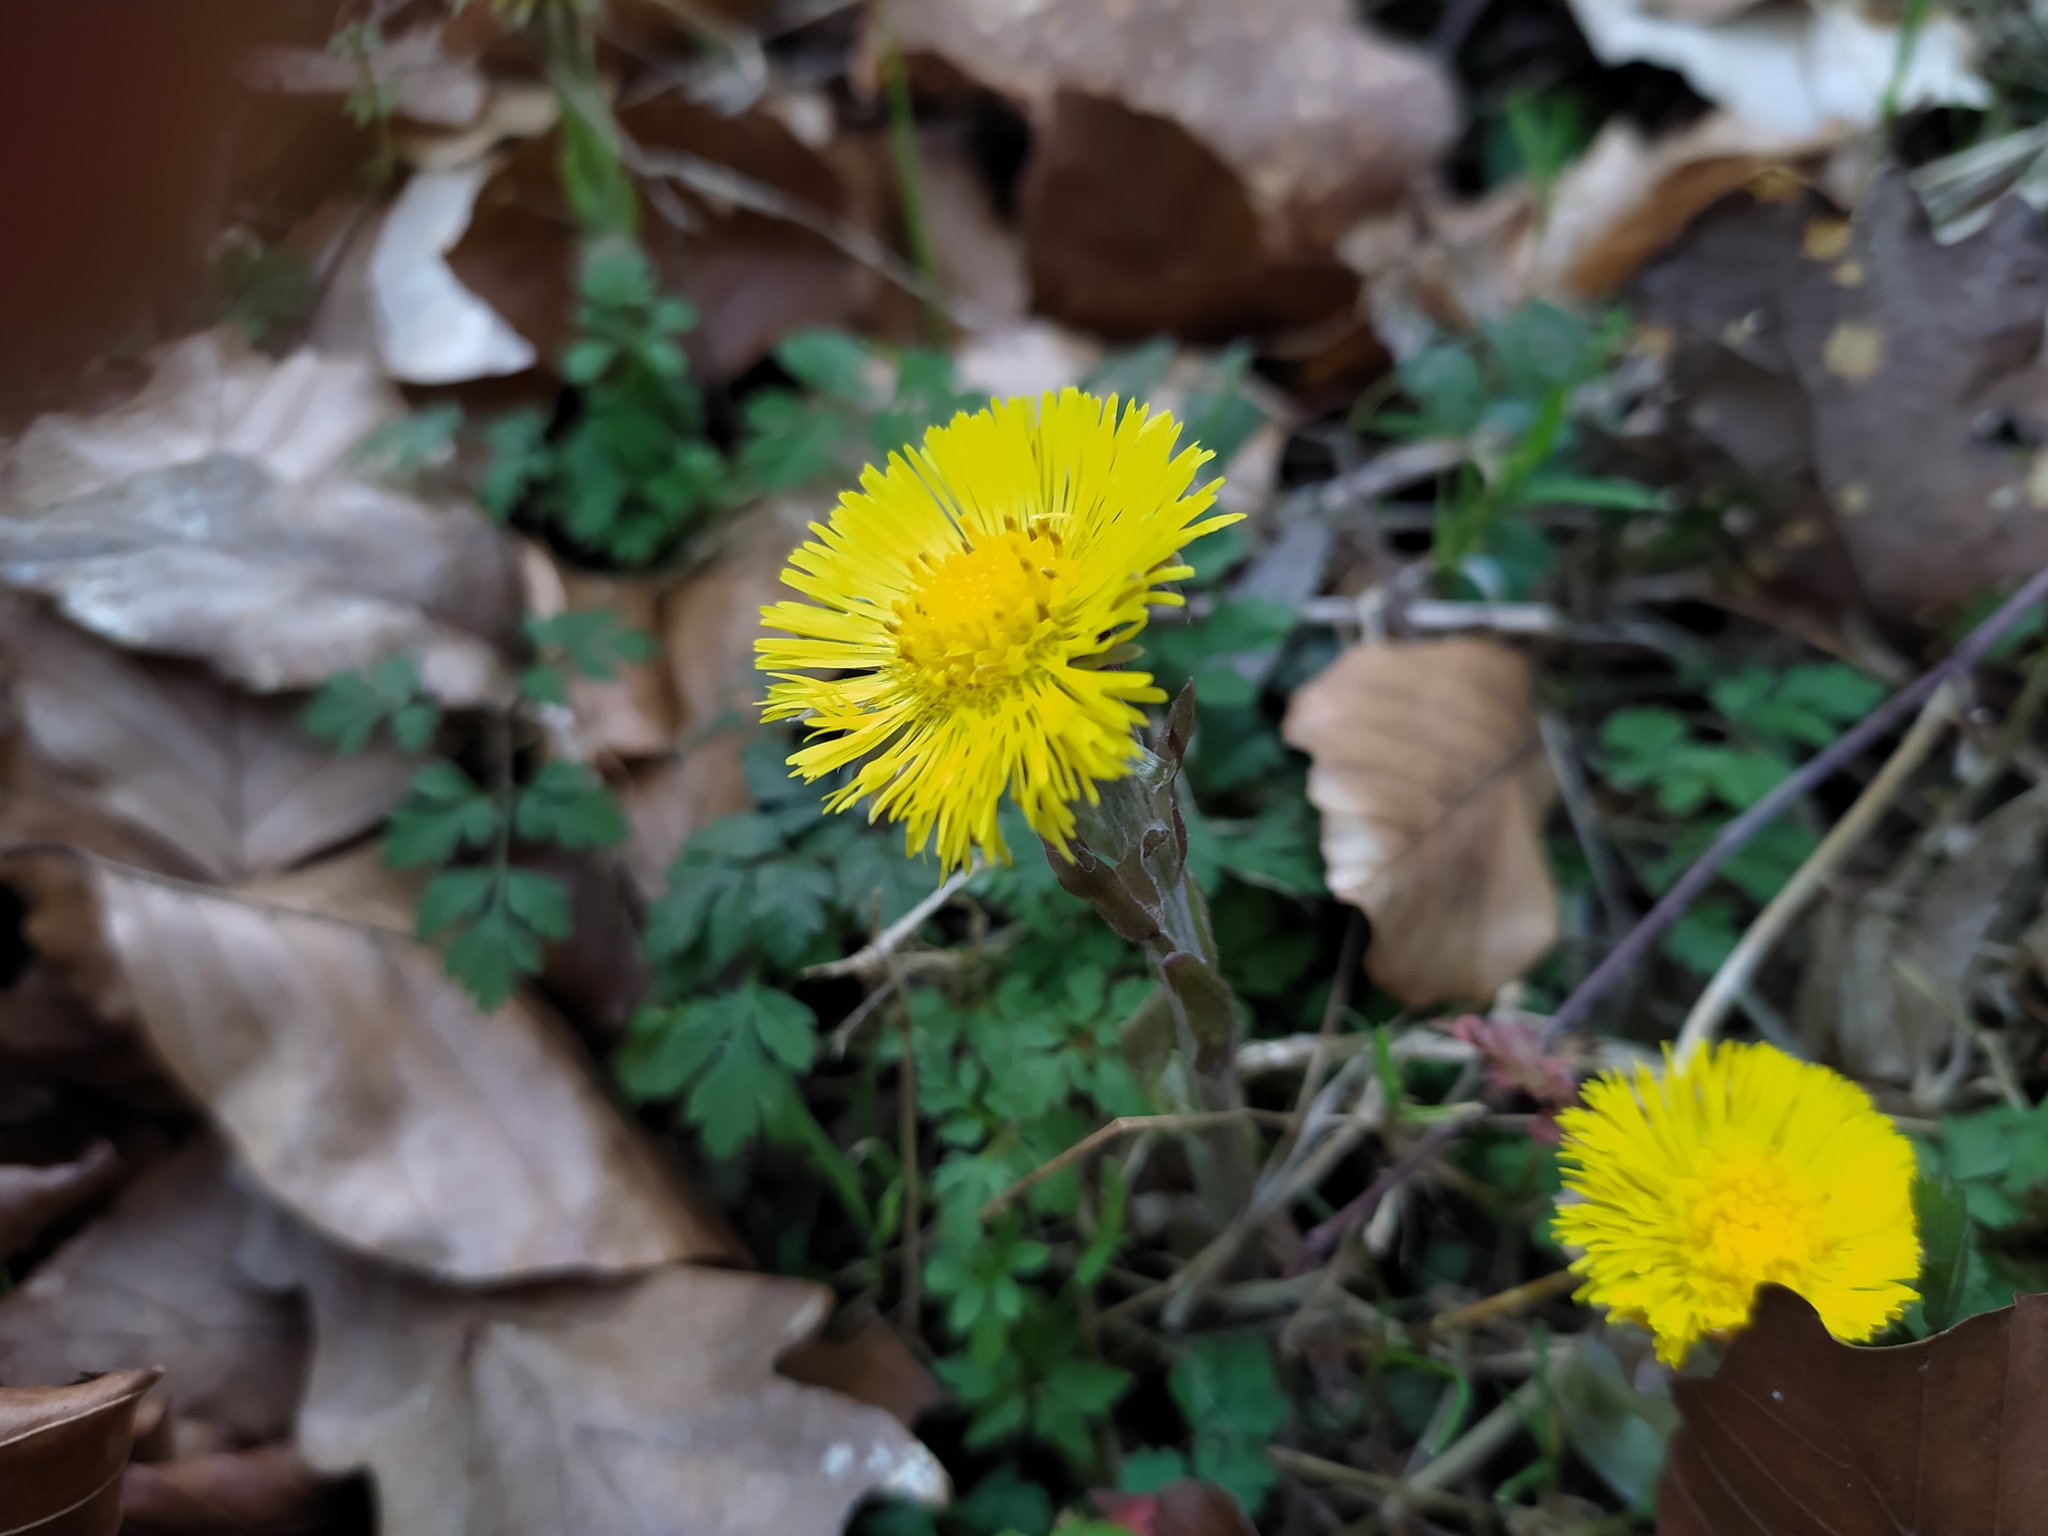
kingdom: Plantae
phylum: Tracheophyta
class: Magnoliopsida
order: Asterales
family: Asteraceae
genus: Tussilago
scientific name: Tussilago farfara
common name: Coltsfoot
